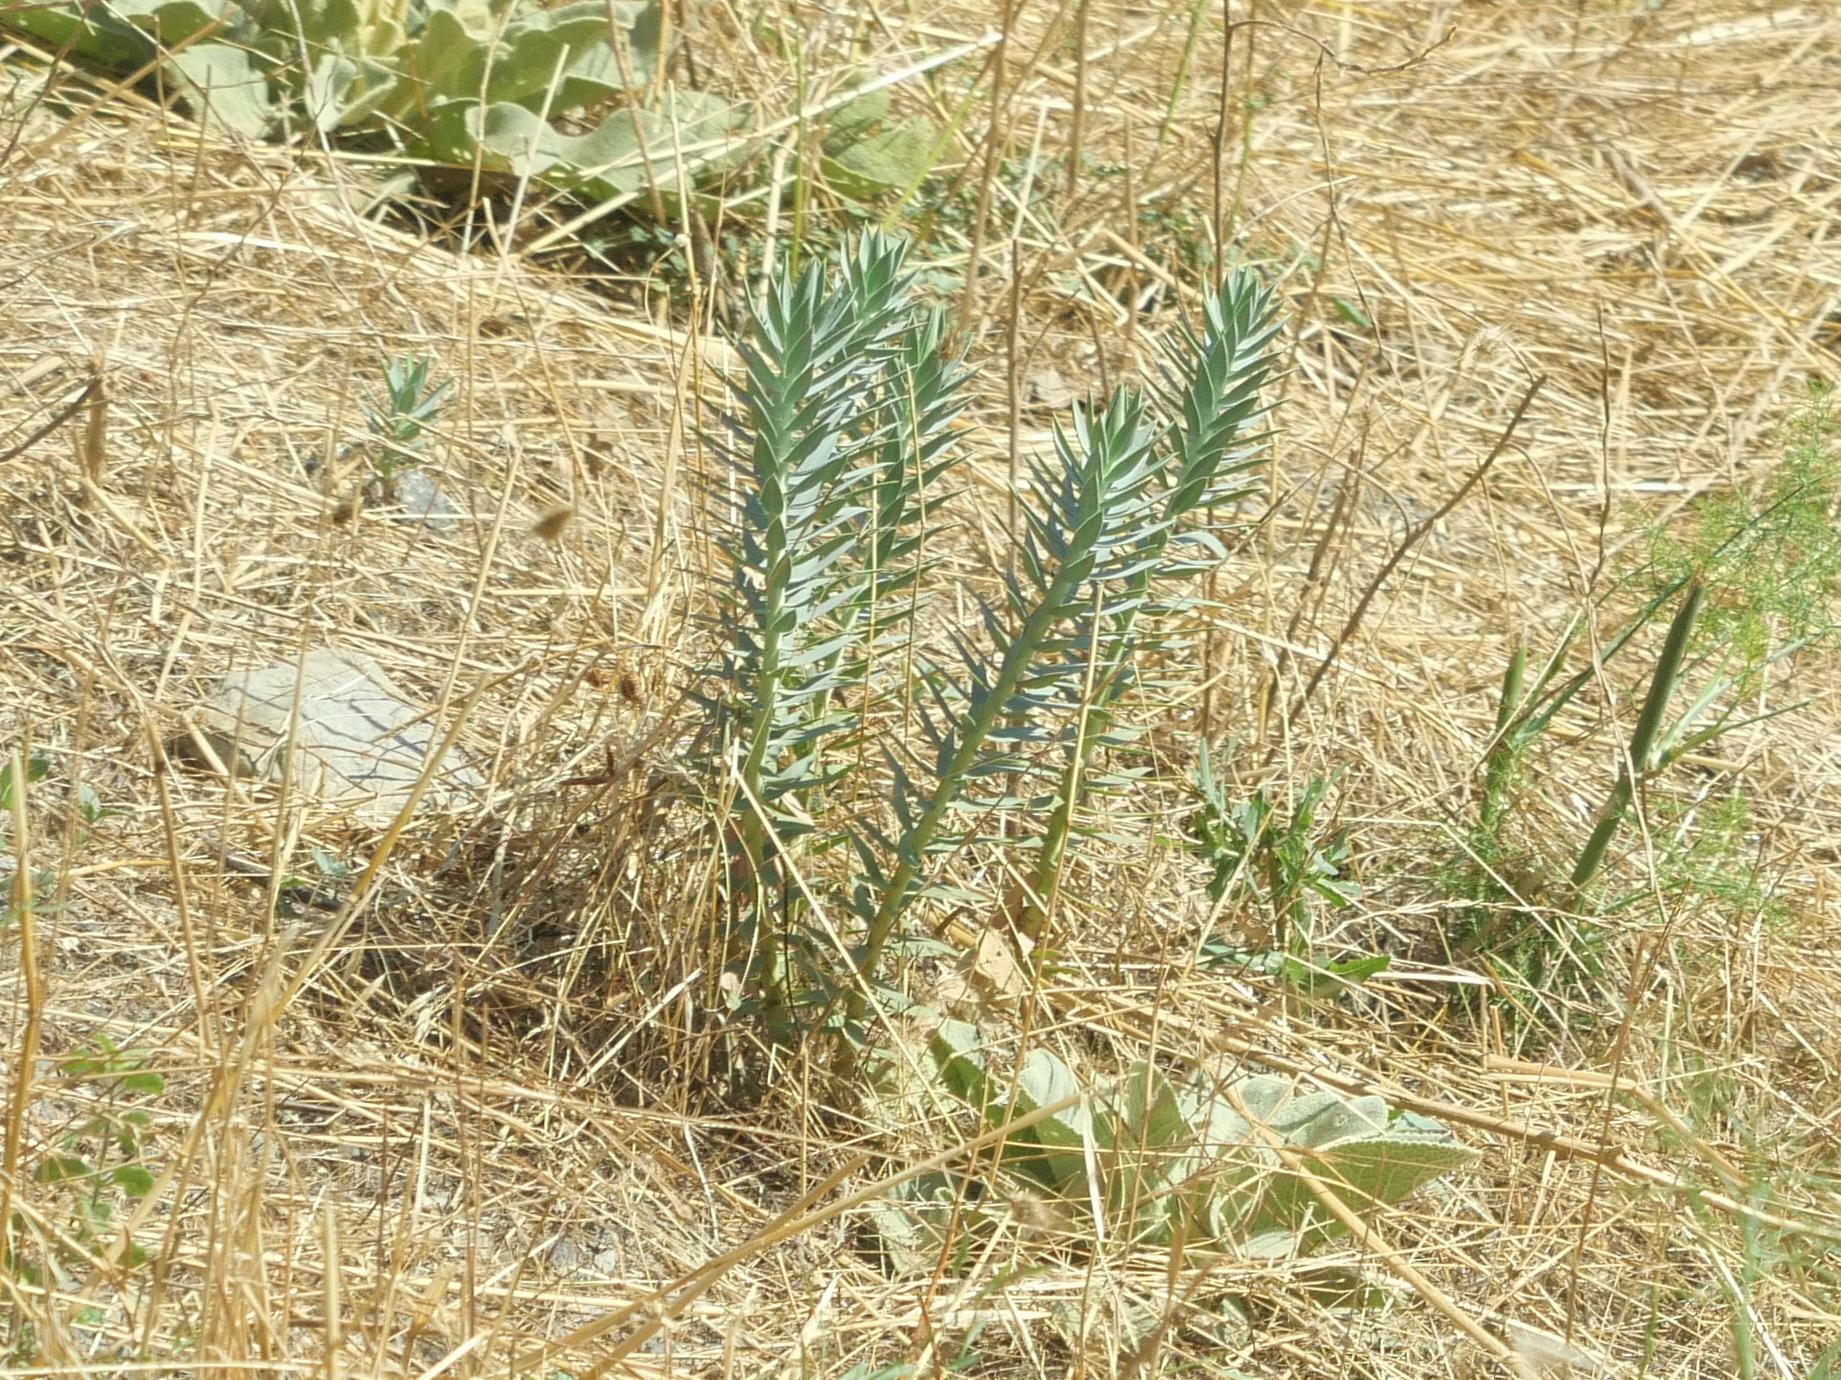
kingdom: Plantae
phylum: Tracheophyta
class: Magnoliopsida
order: Malpighiales
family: Euphorbiaceae
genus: Euphorbia
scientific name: Euphorbia rigida
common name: Upright myrtle spurge
